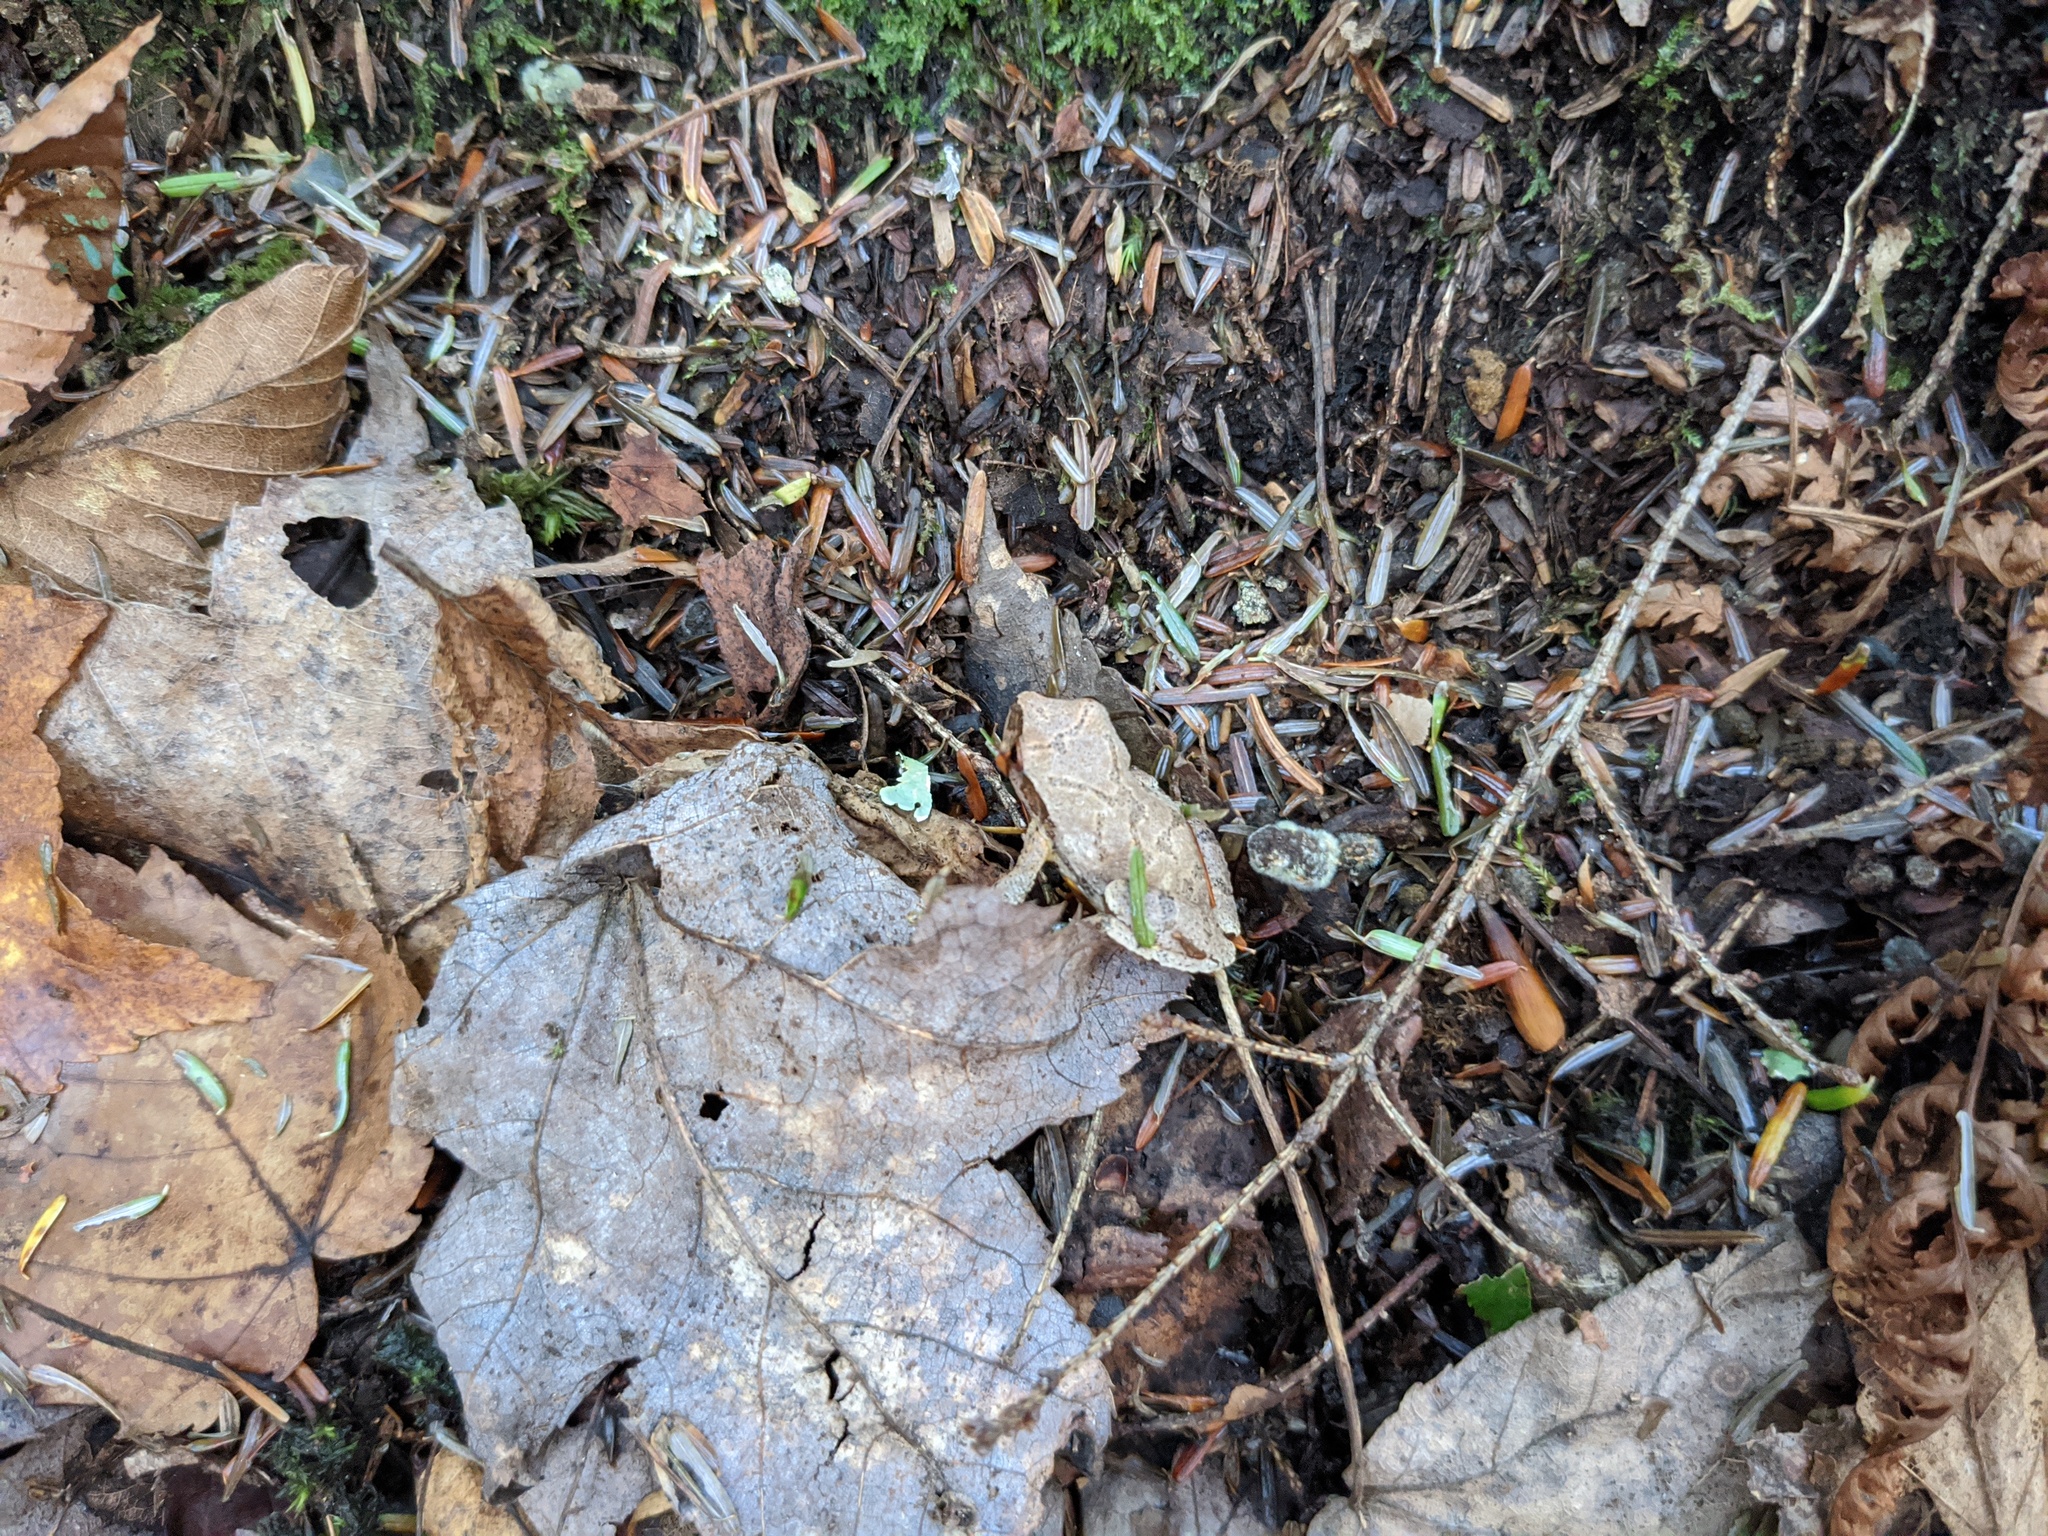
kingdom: Animalia
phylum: Chordata
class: Amphibia
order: Anura
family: Hylidae
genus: Pseudacris
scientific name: Pseudacris crucifer
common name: Spring peeper
